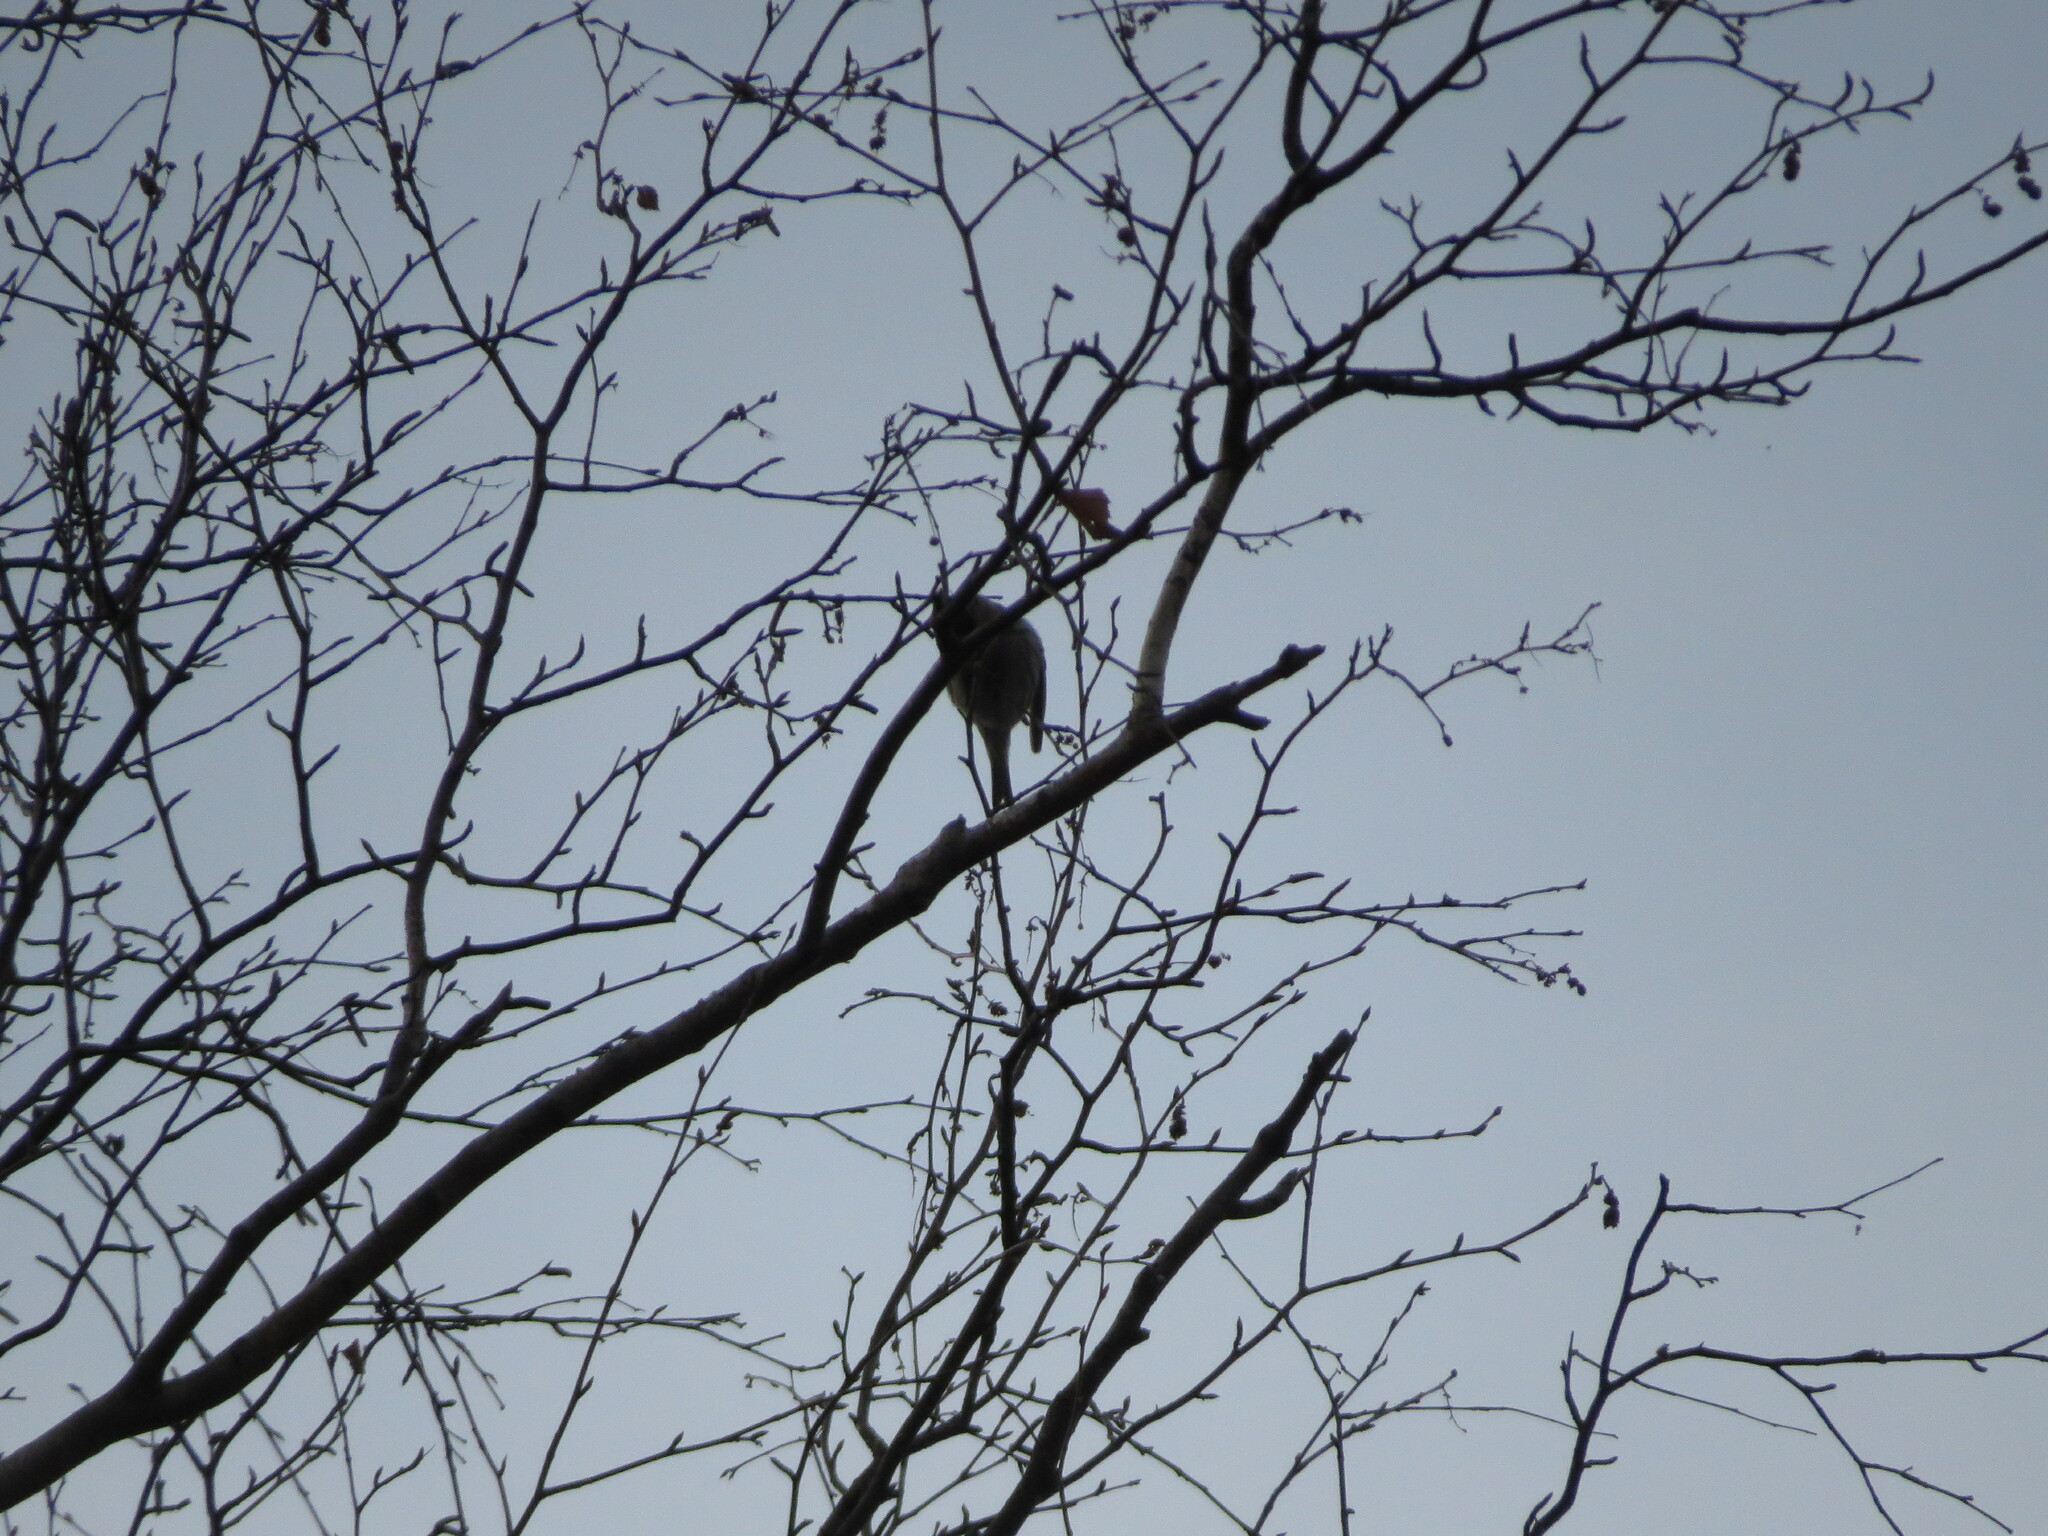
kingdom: Animalia
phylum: Chordata
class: Aves
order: Passeriformes
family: Fringillidae
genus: Acanthis
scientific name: Acanthis flammea
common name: Common redpoll
